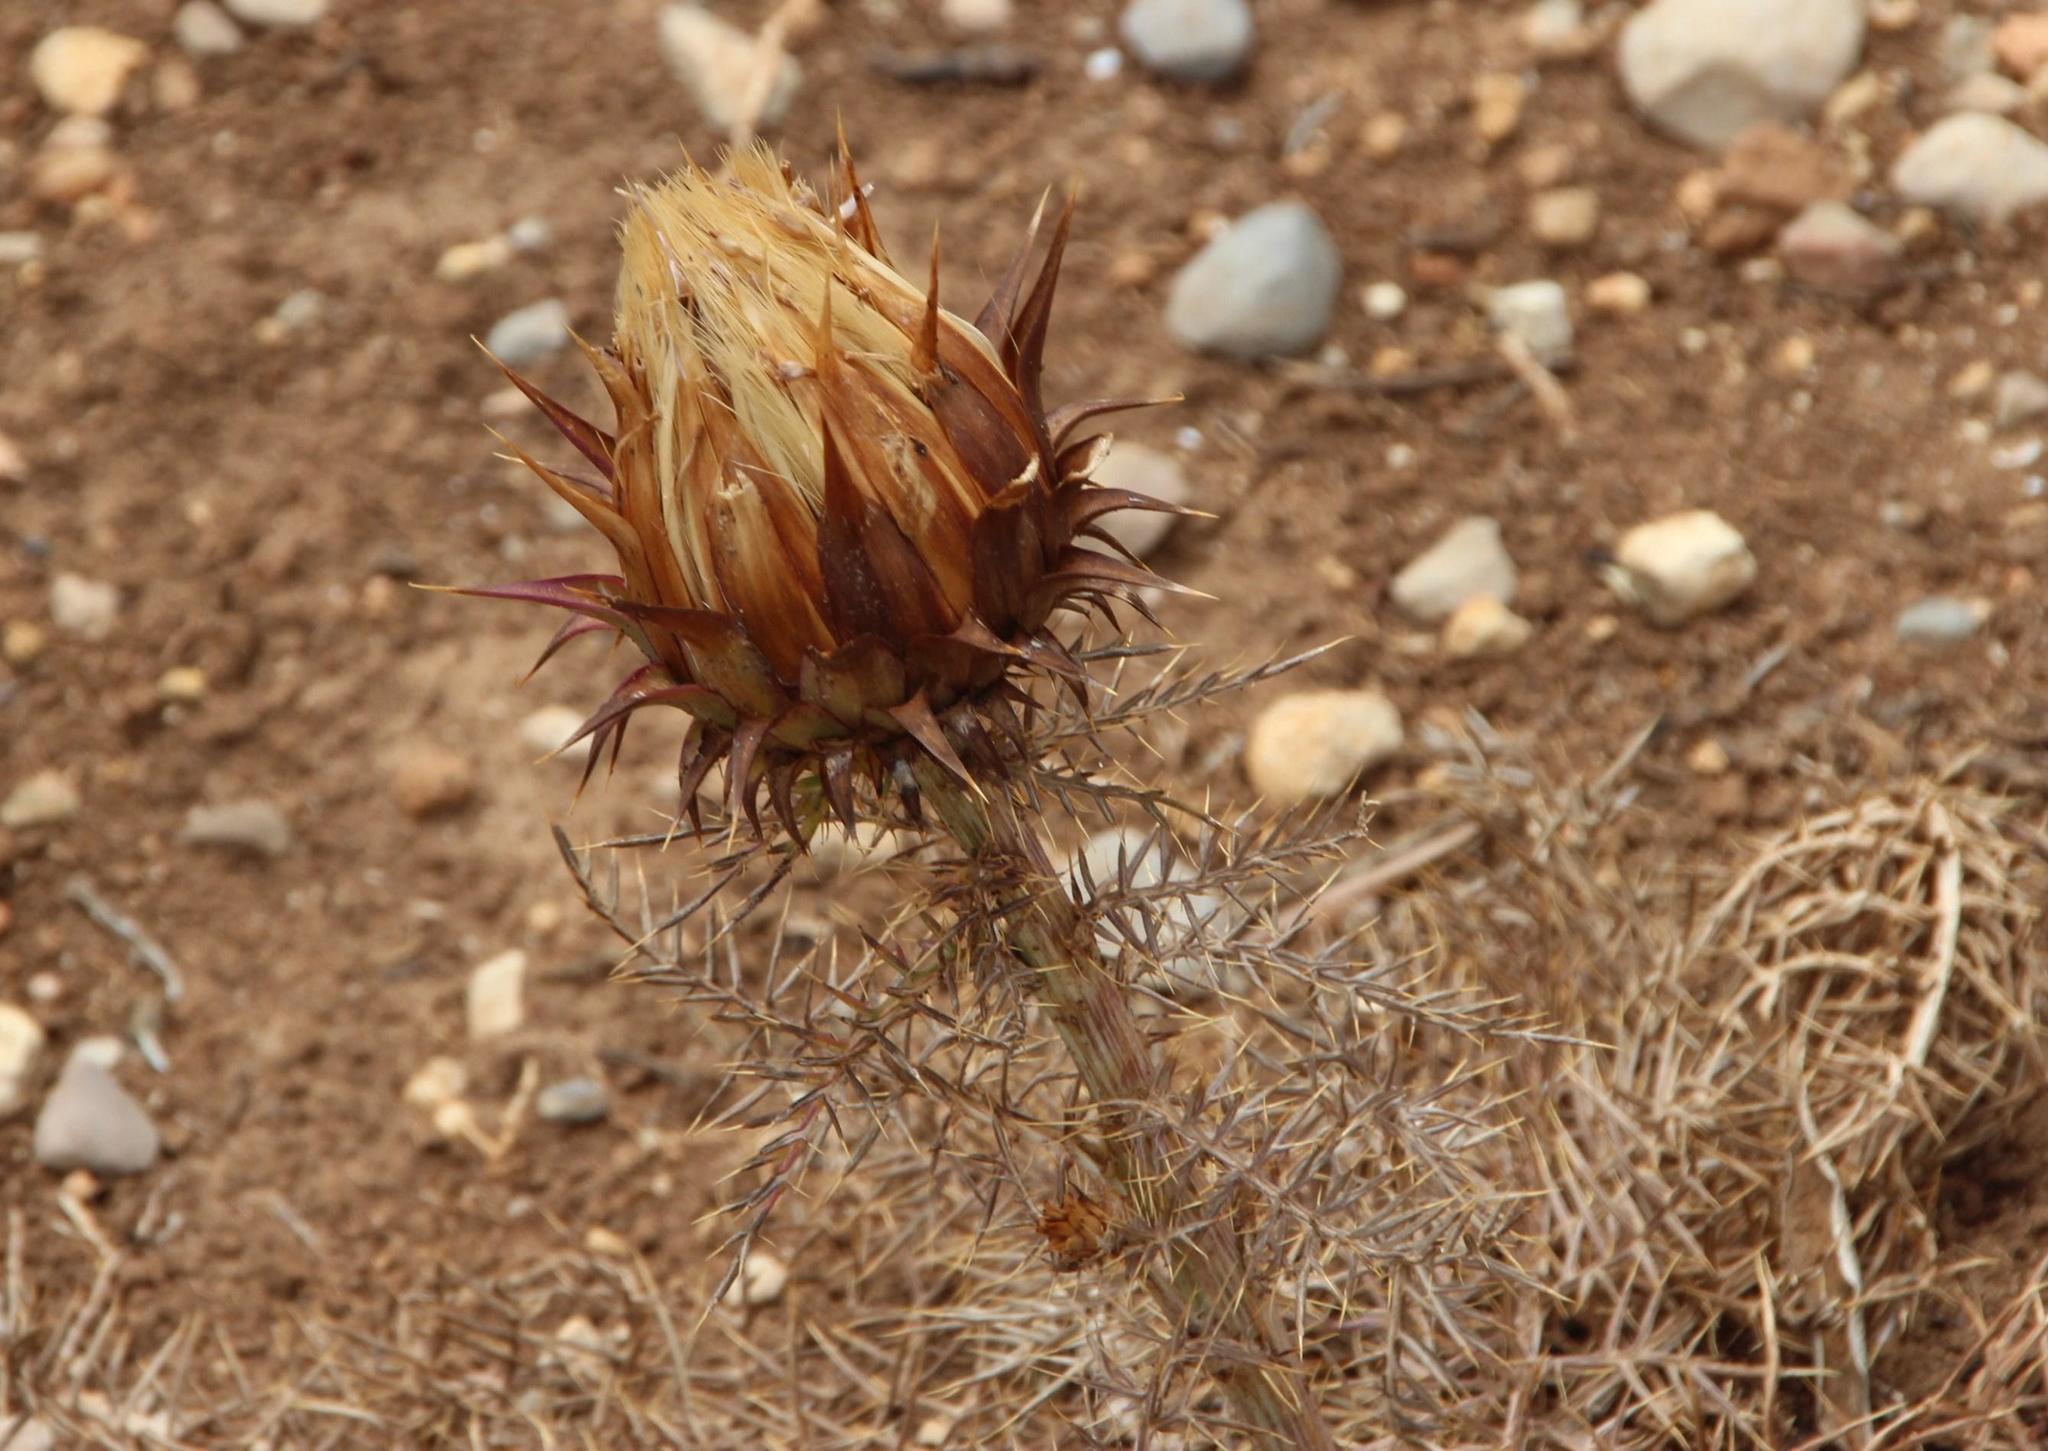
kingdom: Plantae
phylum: Tracheophyta
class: Magnoliopsida
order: Asterales
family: Asteraceae
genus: Cynara
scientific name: Cynara humilis
